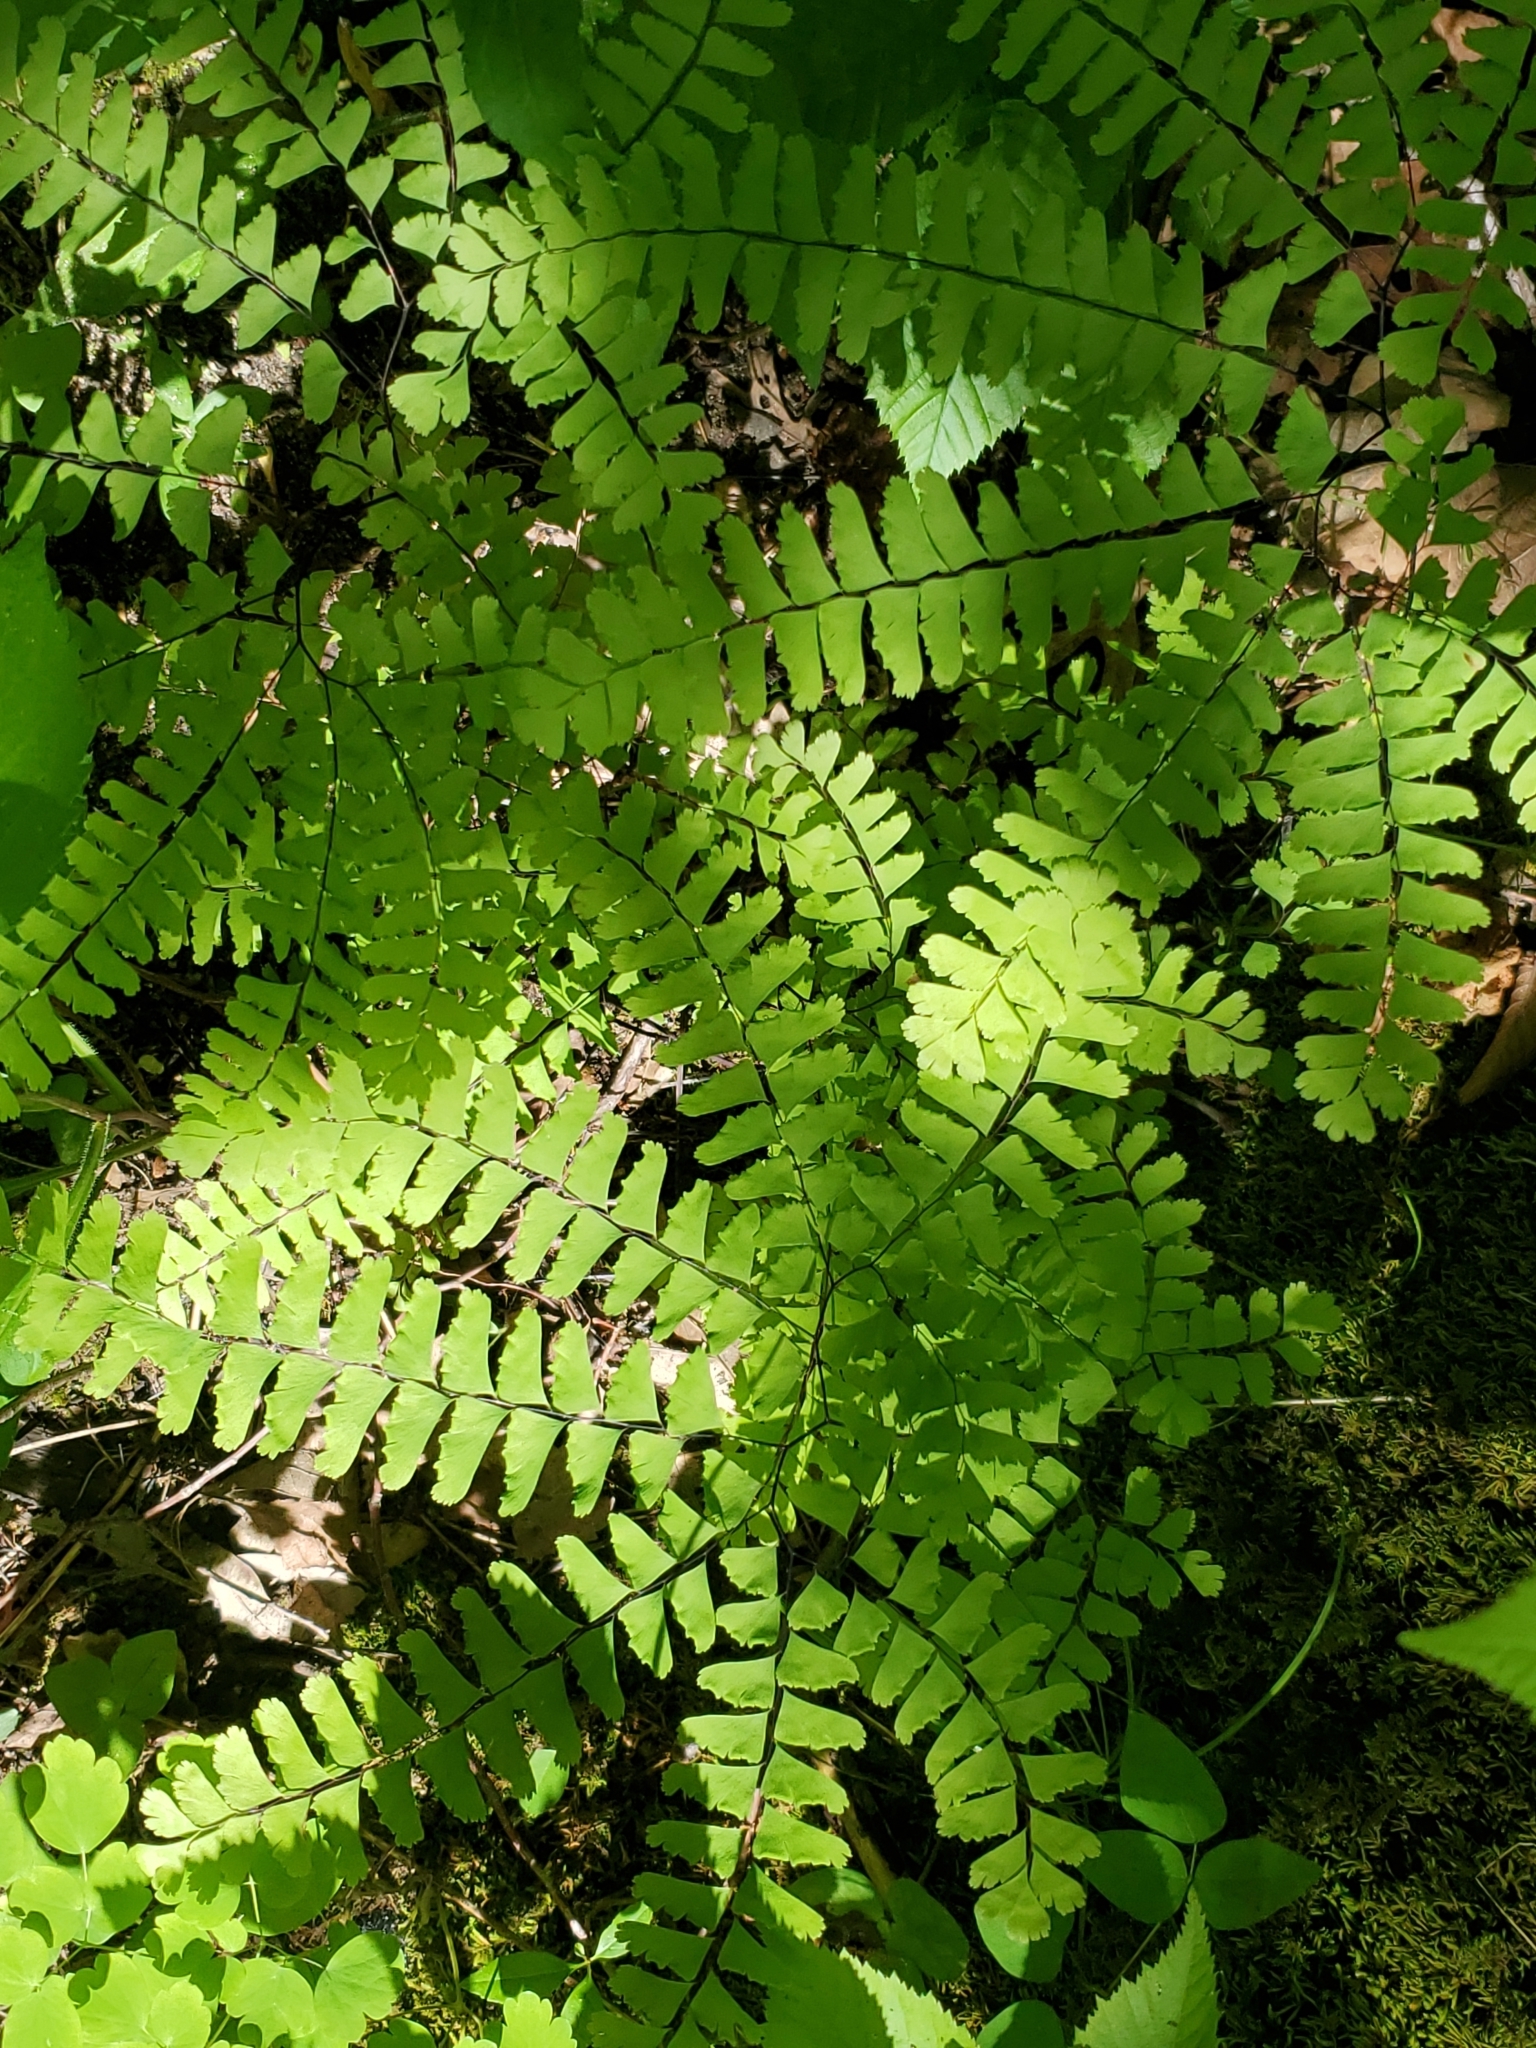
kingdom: Plantae
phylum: Tracheophyta
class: Polypodiopsida
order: Polypodiales
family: Pteridaceae
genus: Adiantum
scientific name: Adiantum pedatum
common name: Five-finger fern
